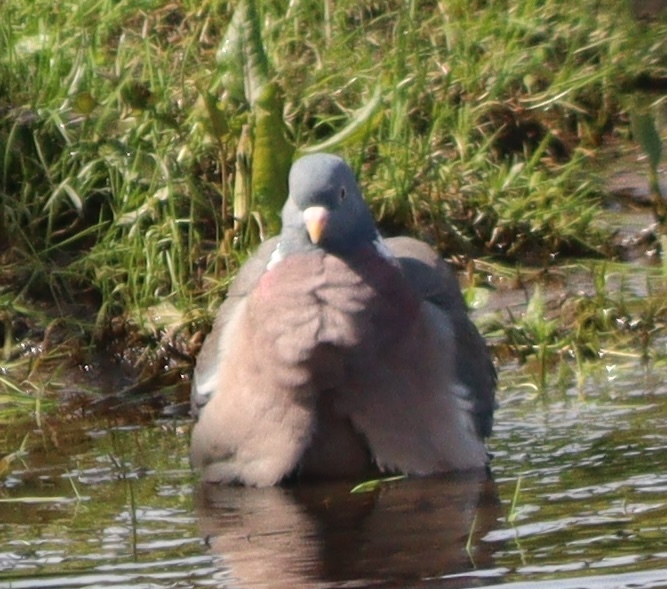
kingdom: Animalia
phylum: Chordata
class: Aves
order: Columbiformes
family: Columbidae
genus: Columba
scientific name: Columba palumbus
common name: Common wood pigeon
